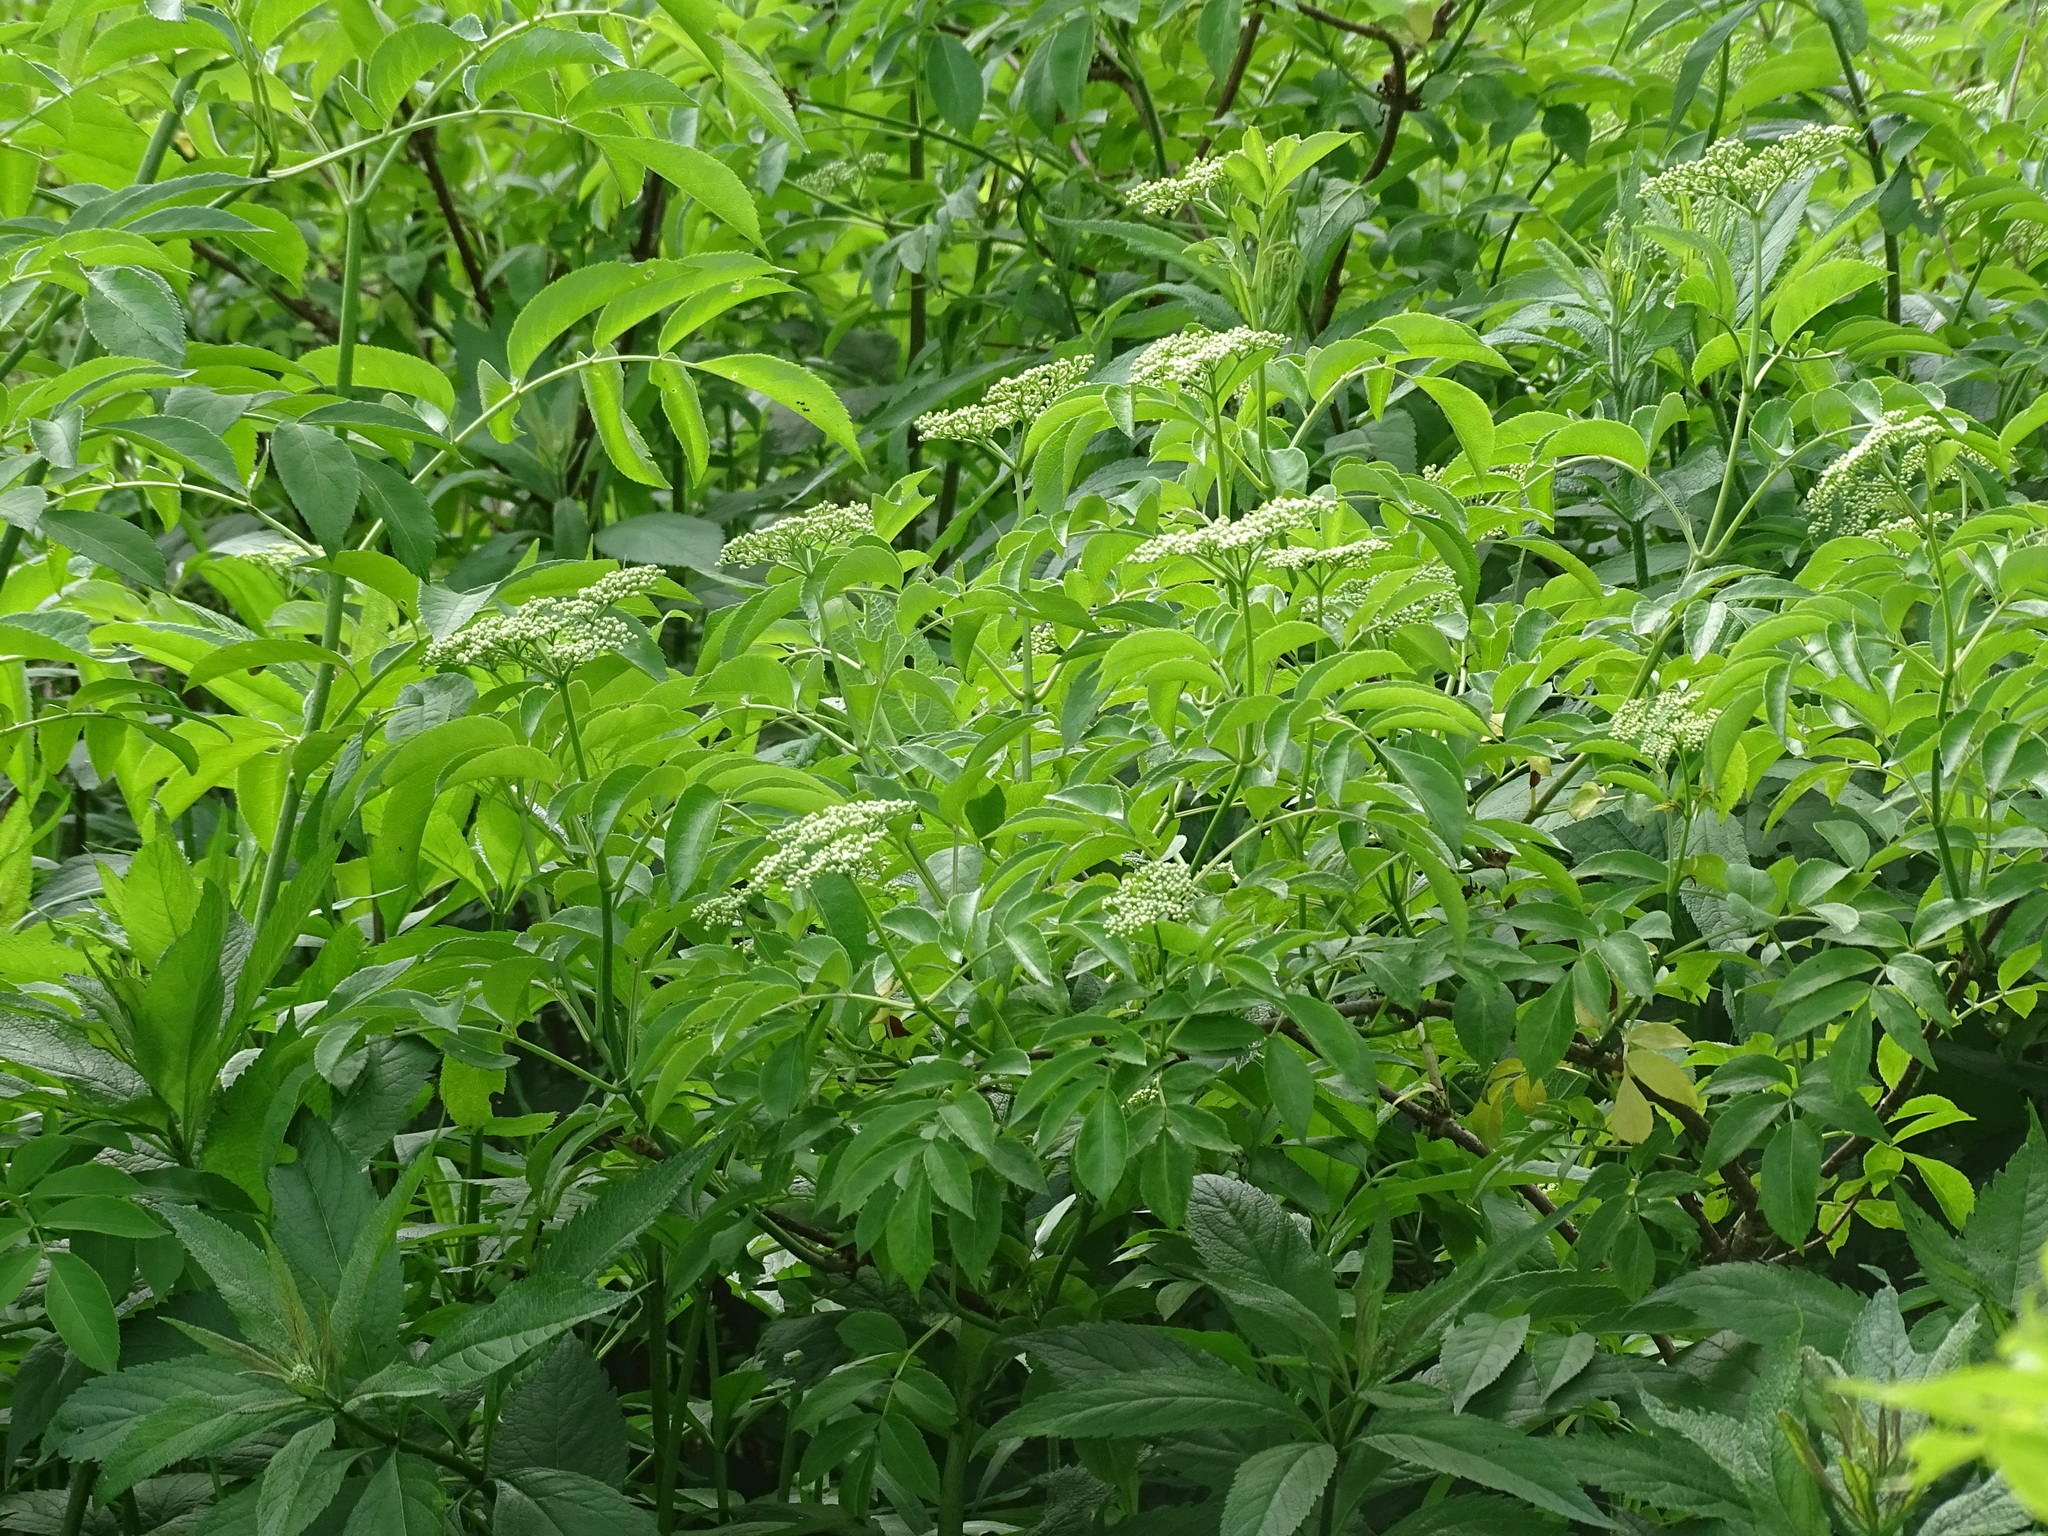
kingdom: Plantae
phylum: Tracheophyta
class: Magnoliopsida
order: Dipsacales
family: Viburnaceae
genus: Sambucus
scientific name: Sambucus canadensis
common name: American elder
